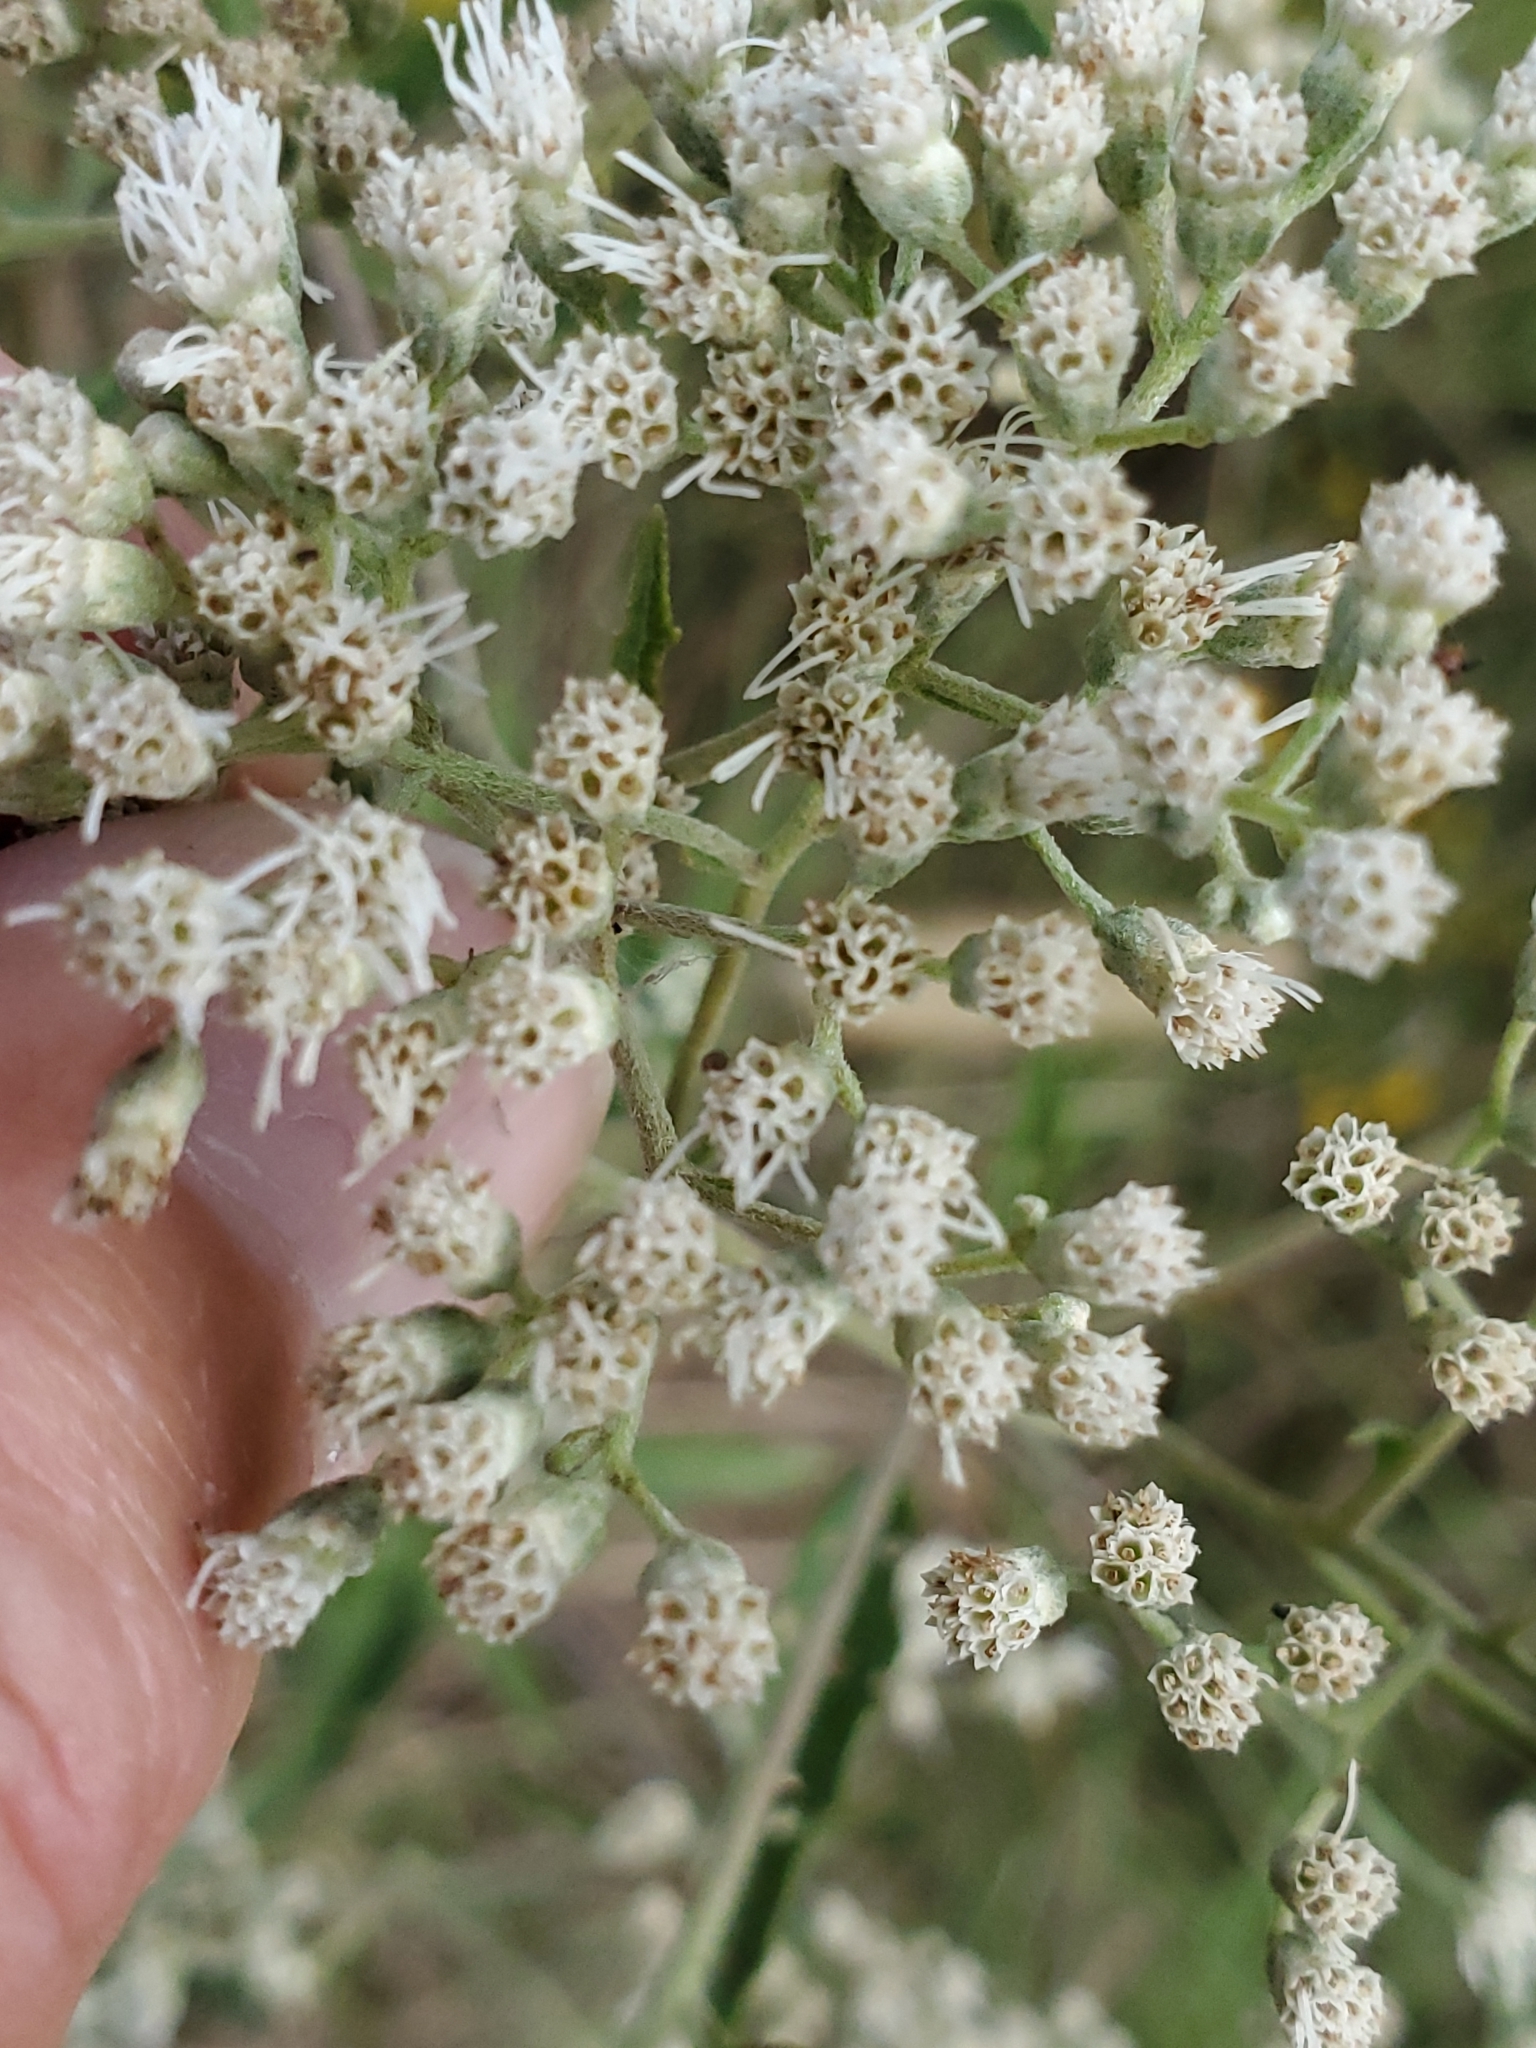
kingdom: Plantae
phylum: Tracheophyta
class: Magnoliopsida
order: Asterales
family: Asteraceae
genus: Eupatorium
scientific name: Eupatorium serotinum
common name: Late boneset
